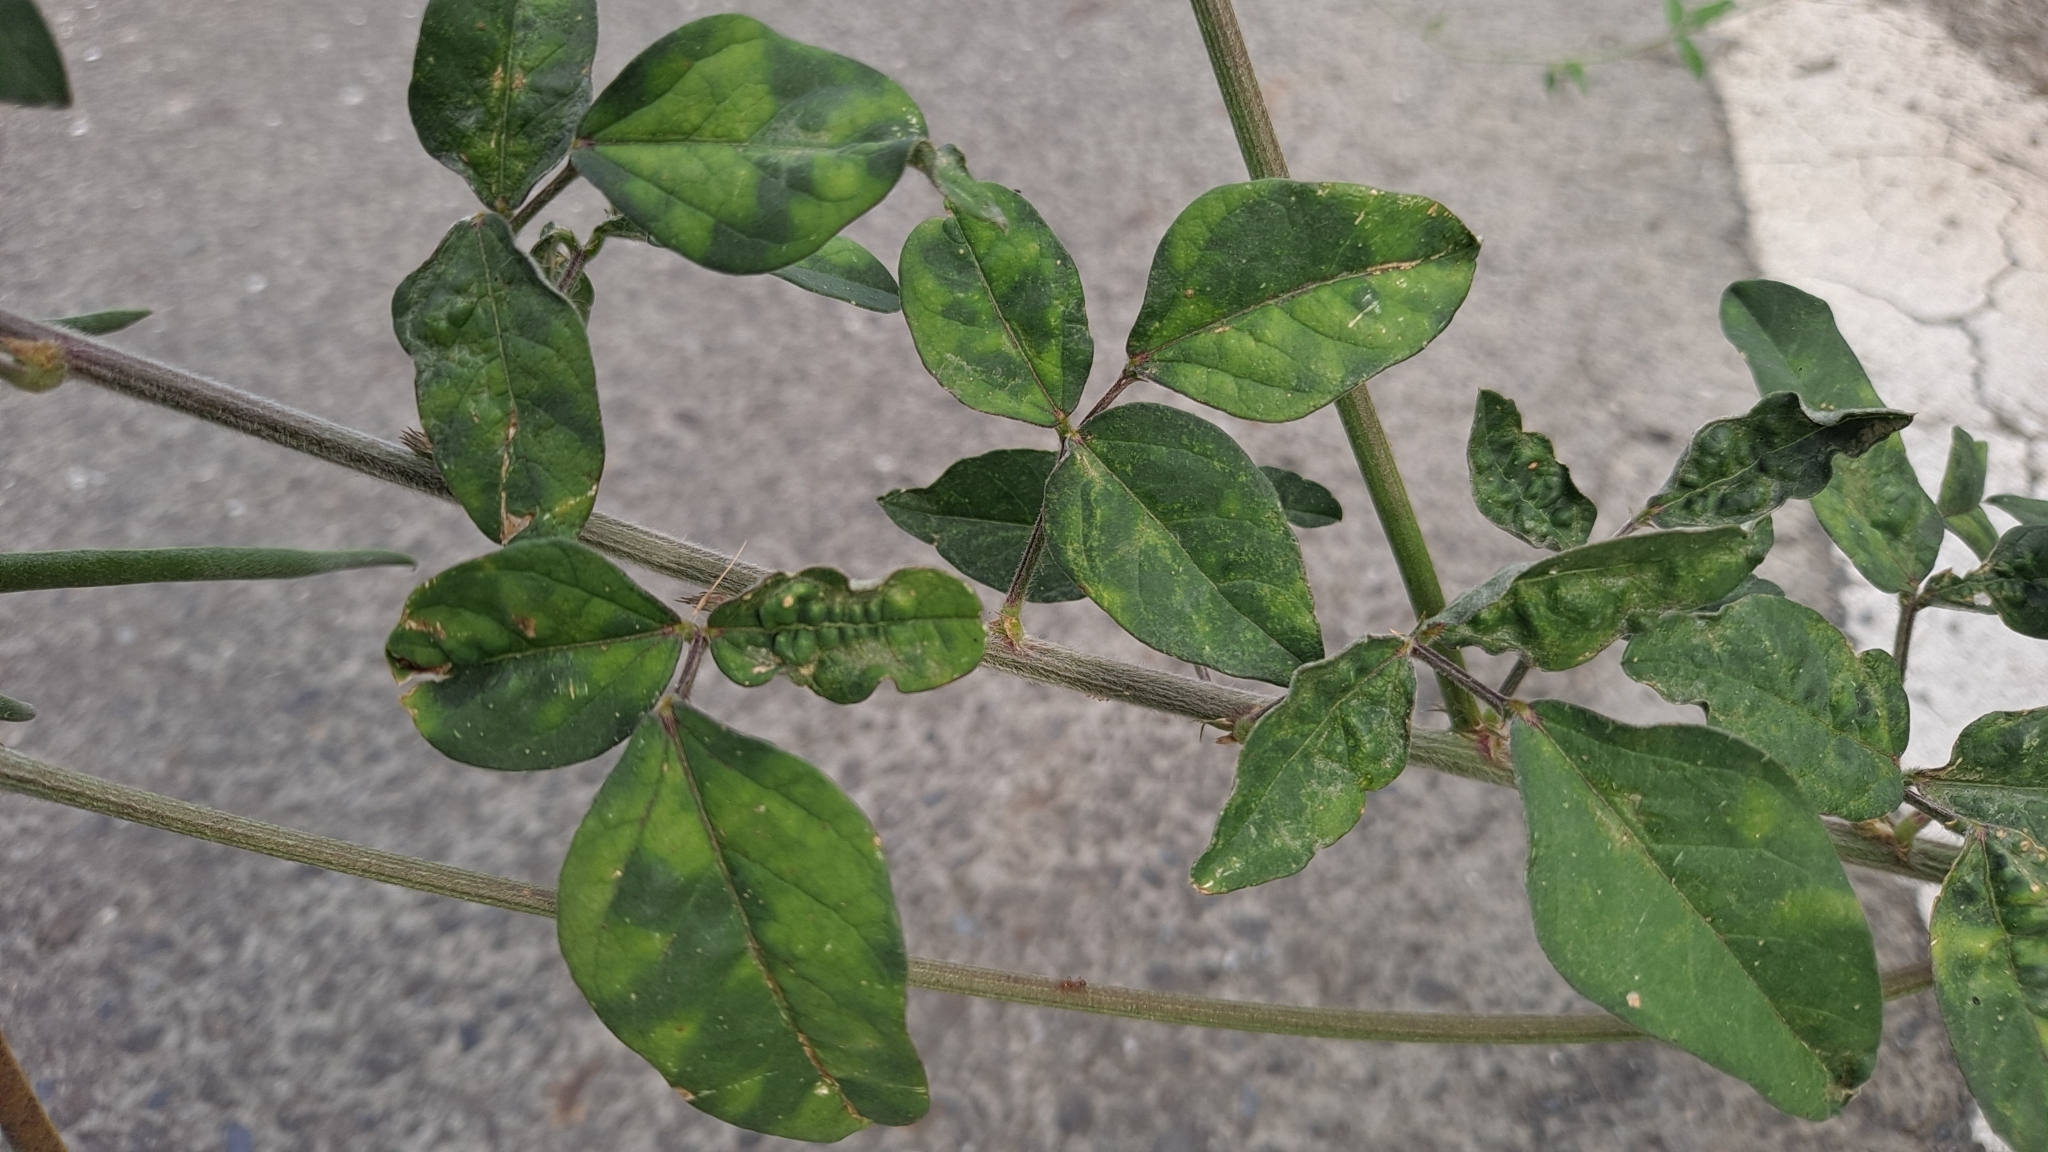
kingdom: Plantae
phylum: Tracheophyta
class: Magnoliopsida
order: Fabales
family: Fabaceae
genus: Macroptilium
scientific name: Macroptilium lathyroides
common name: Wild bushbean
